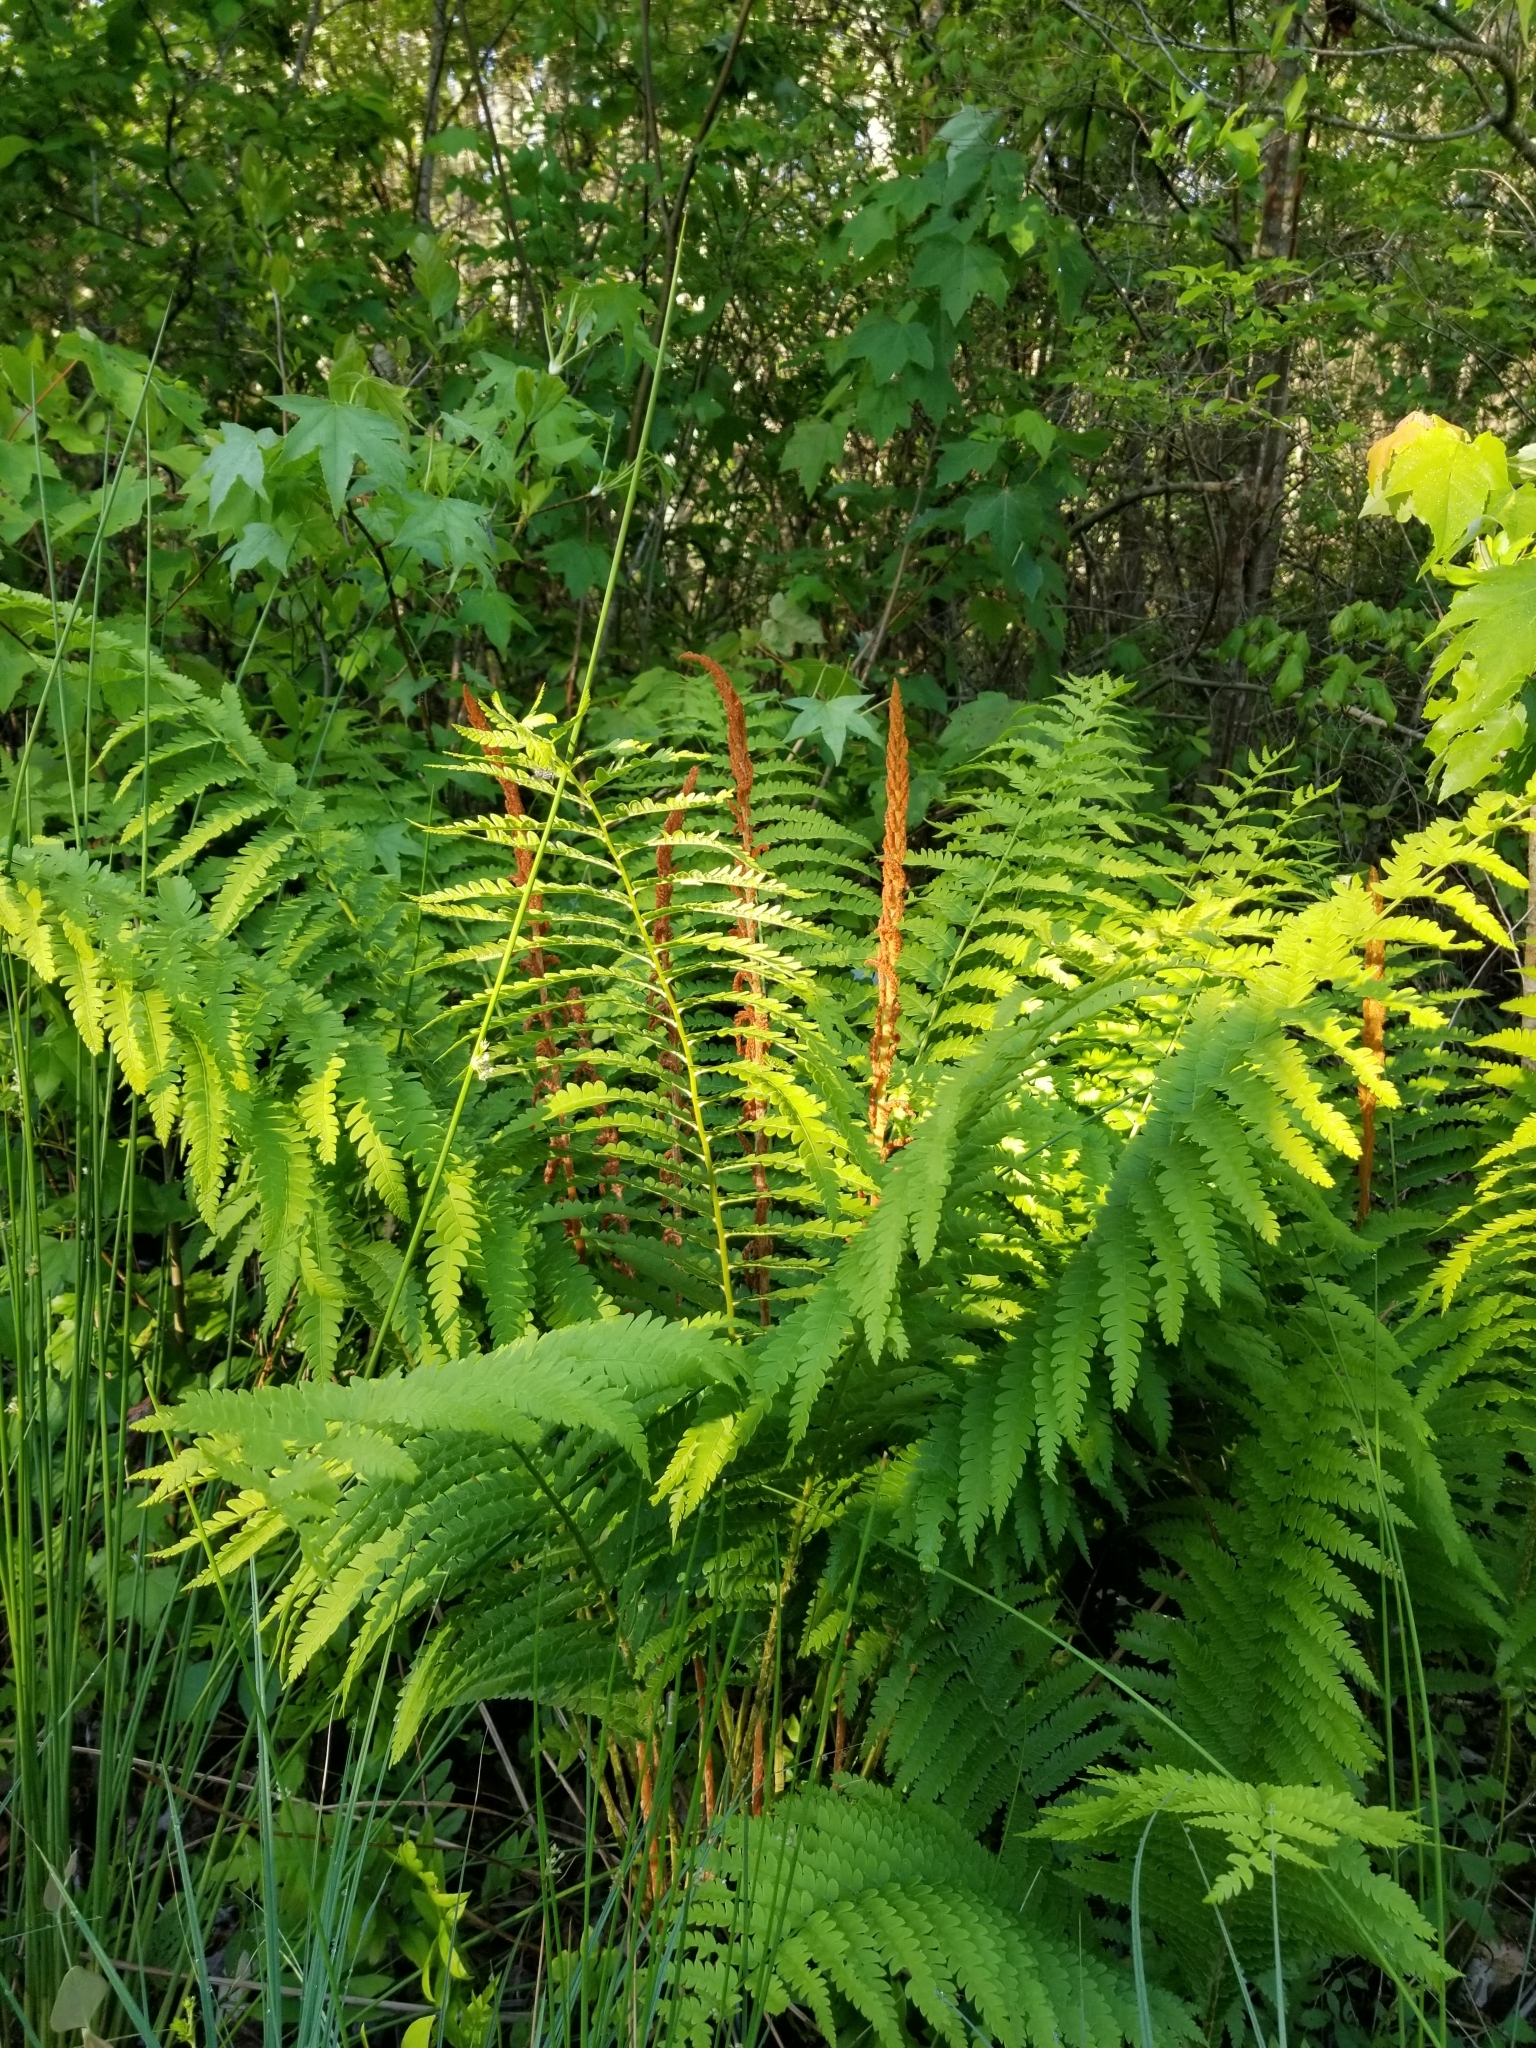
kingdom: Plantae
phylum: Tracheophyta
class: Polypodiopsida
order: Osmundales
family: Osmundaceae
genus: Osmundastrum
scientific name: Osmundastrum cinnamomeum
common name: Cinnamon fern
